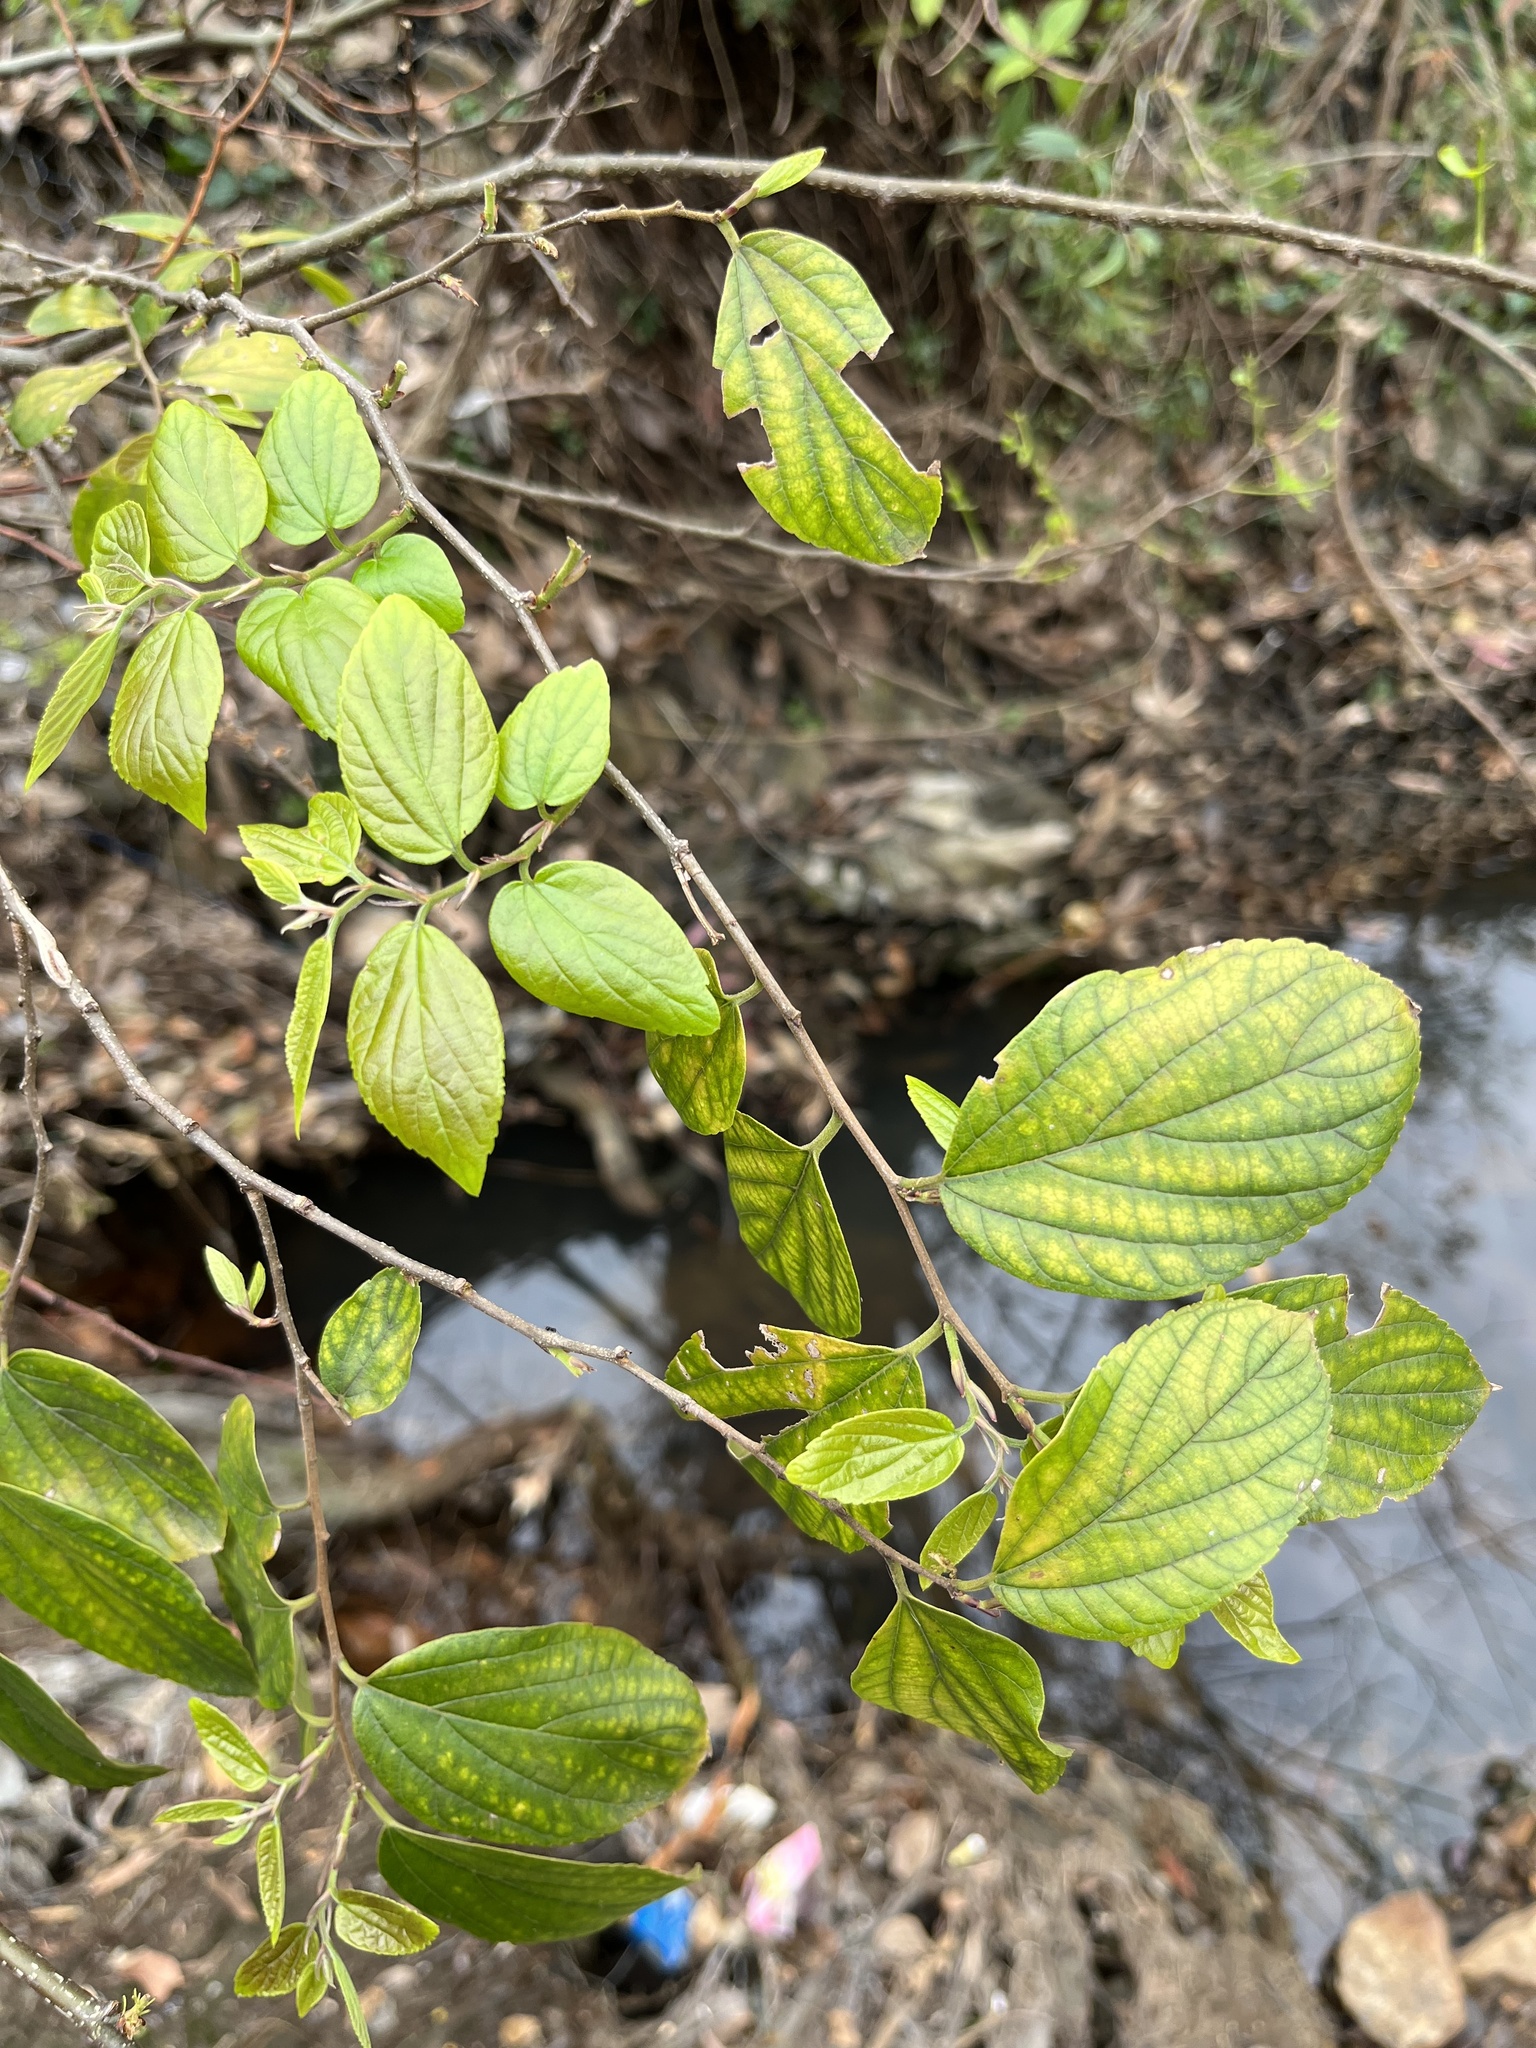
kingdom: Plantae
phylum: Tracheophyta
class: Magnoliopsida
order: Rosales
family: Cannabaceae
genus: Celtis
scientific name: Celtis sinensis
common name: Chinese hackberry
